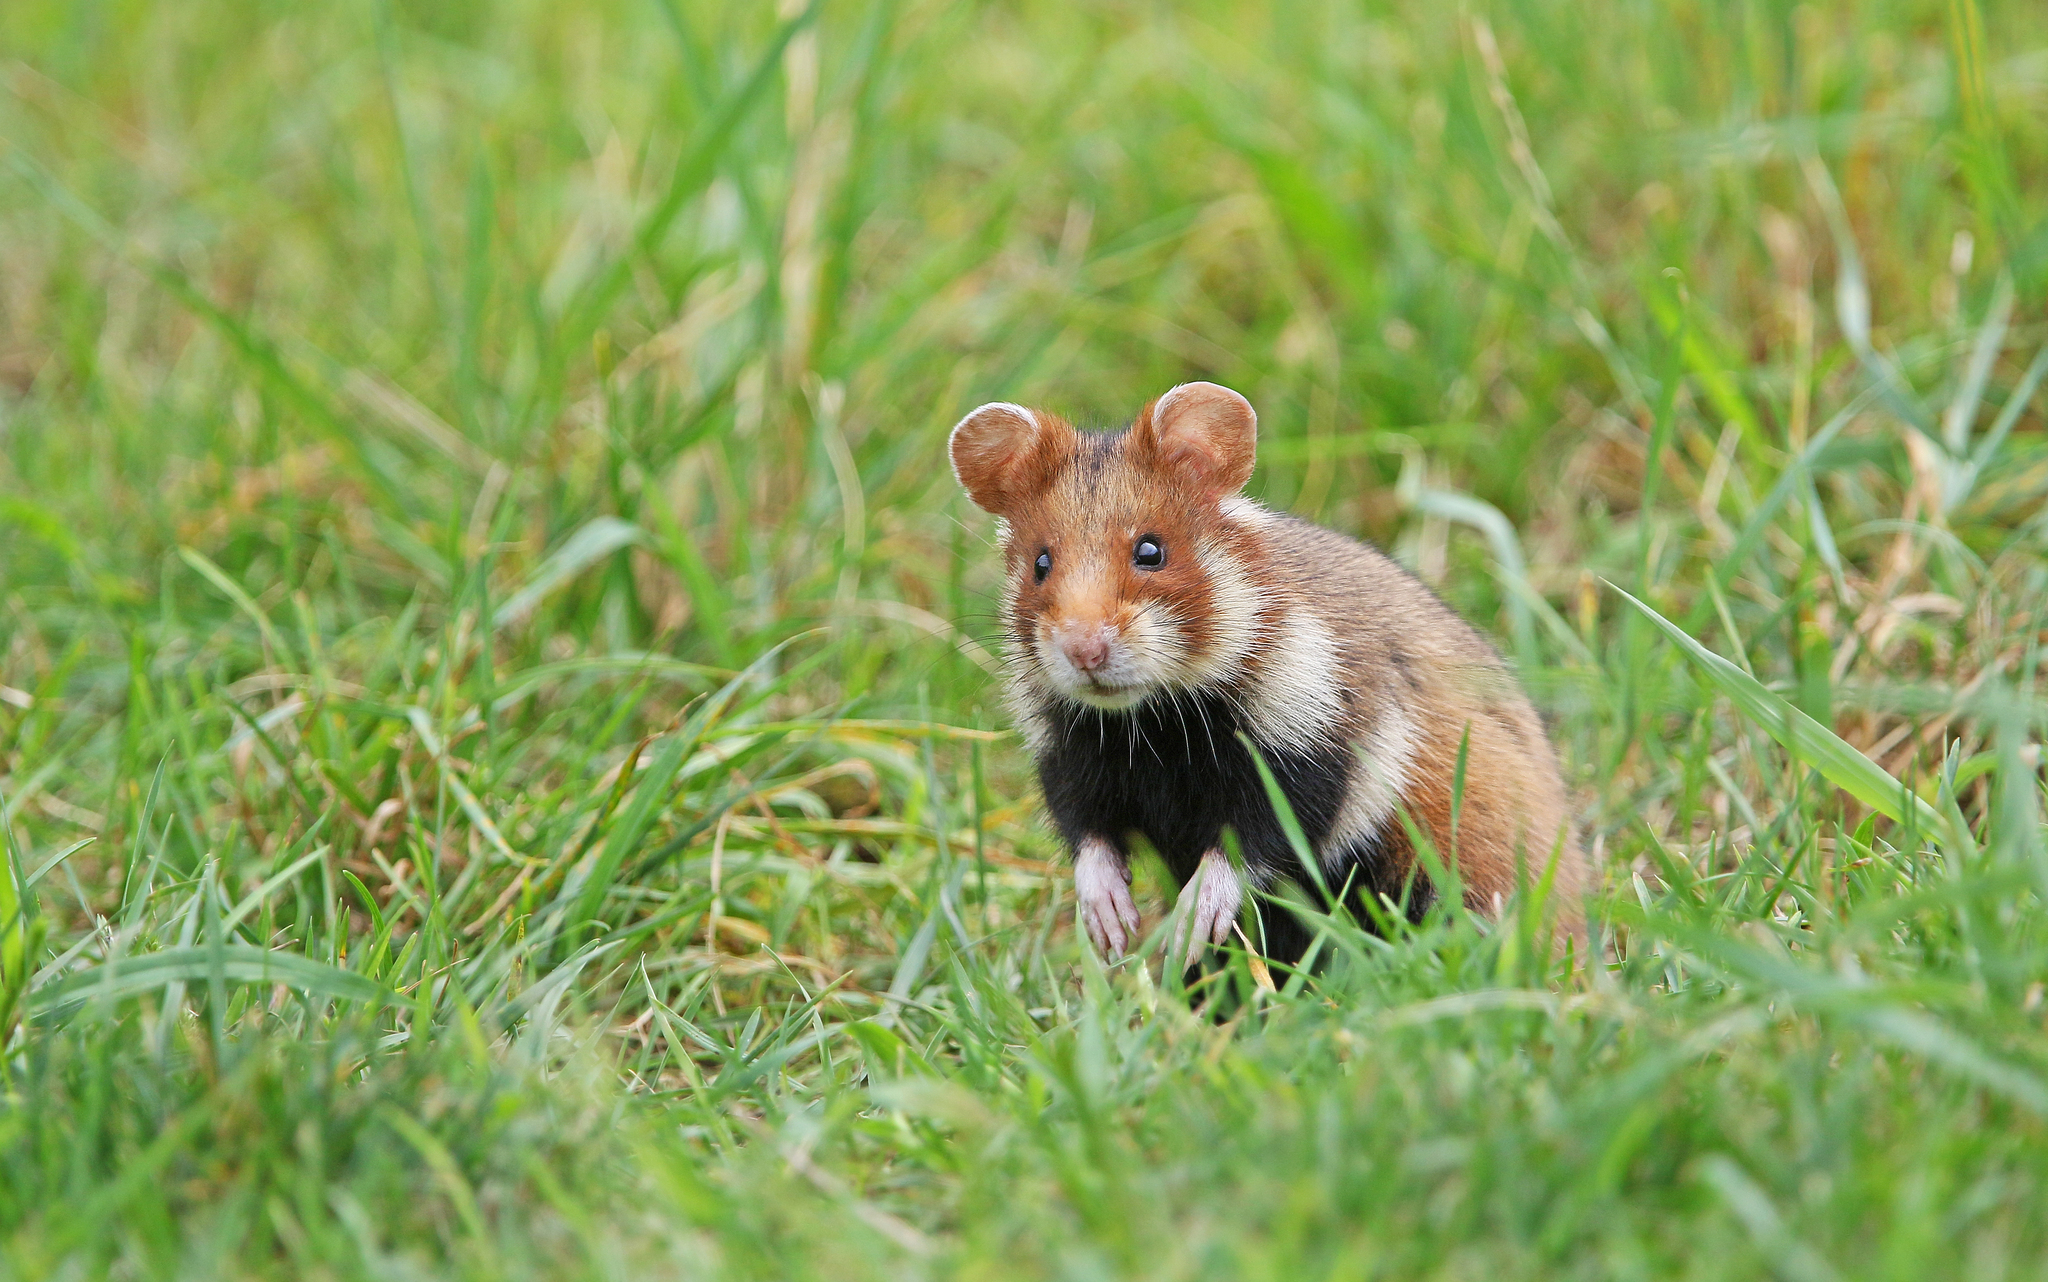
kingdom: Animalia
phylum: Chordata
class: Mammalia
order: Rodentia
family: Cricetidae
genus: Cricetus
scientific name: Cricetus cricetus
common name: Common hamster
